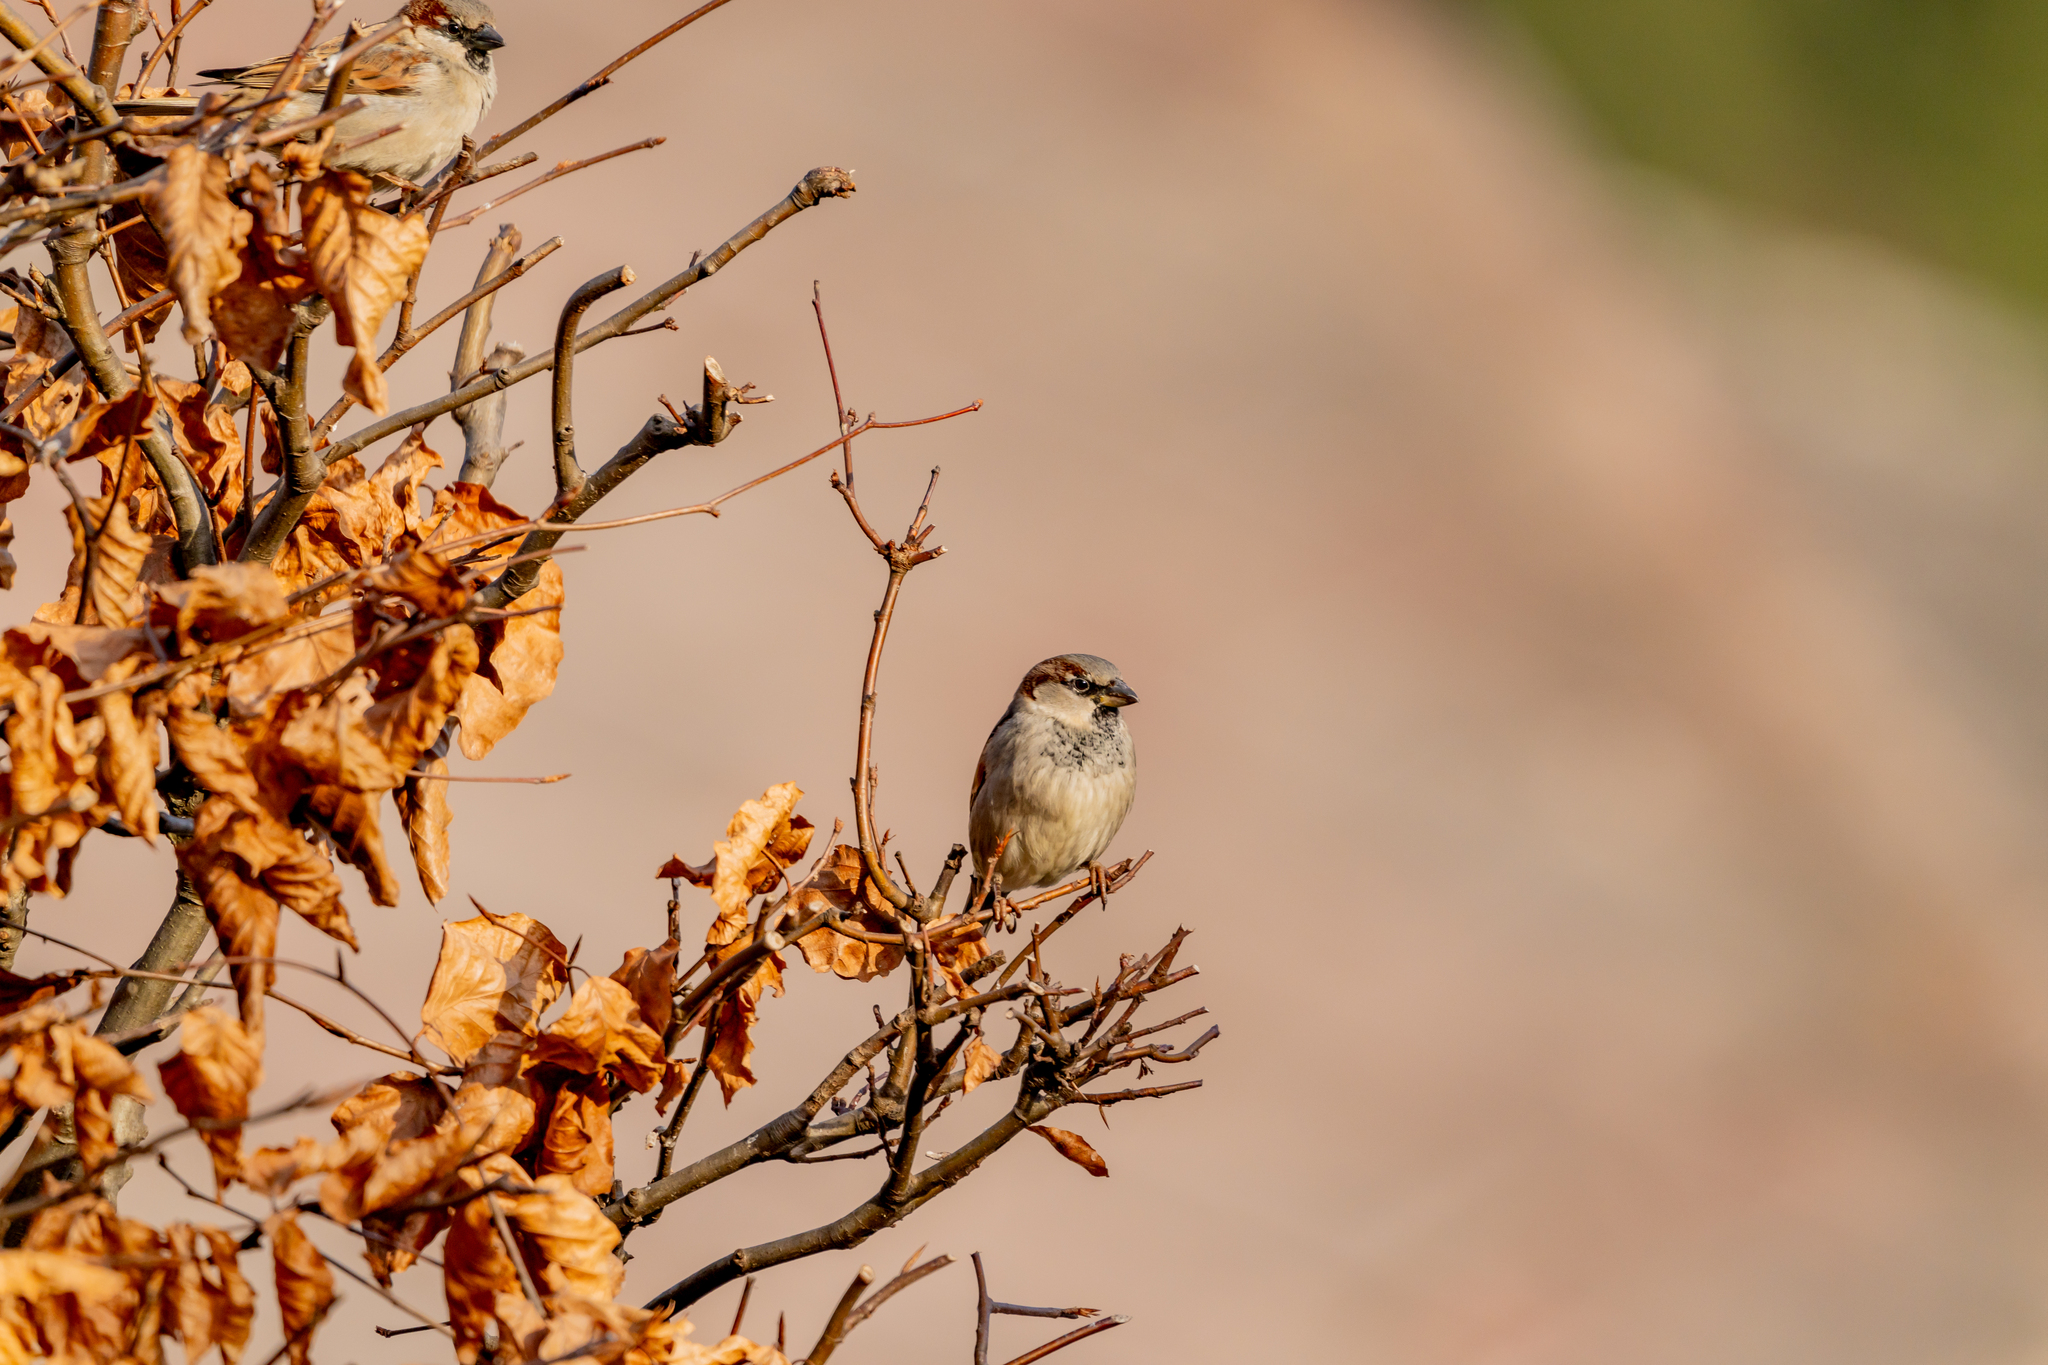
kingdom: Animalia
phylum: Chordata
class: Aves
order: Passeriformes
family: Passeridae
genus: Passer
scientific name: Passer domesticus
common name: House sparrow
